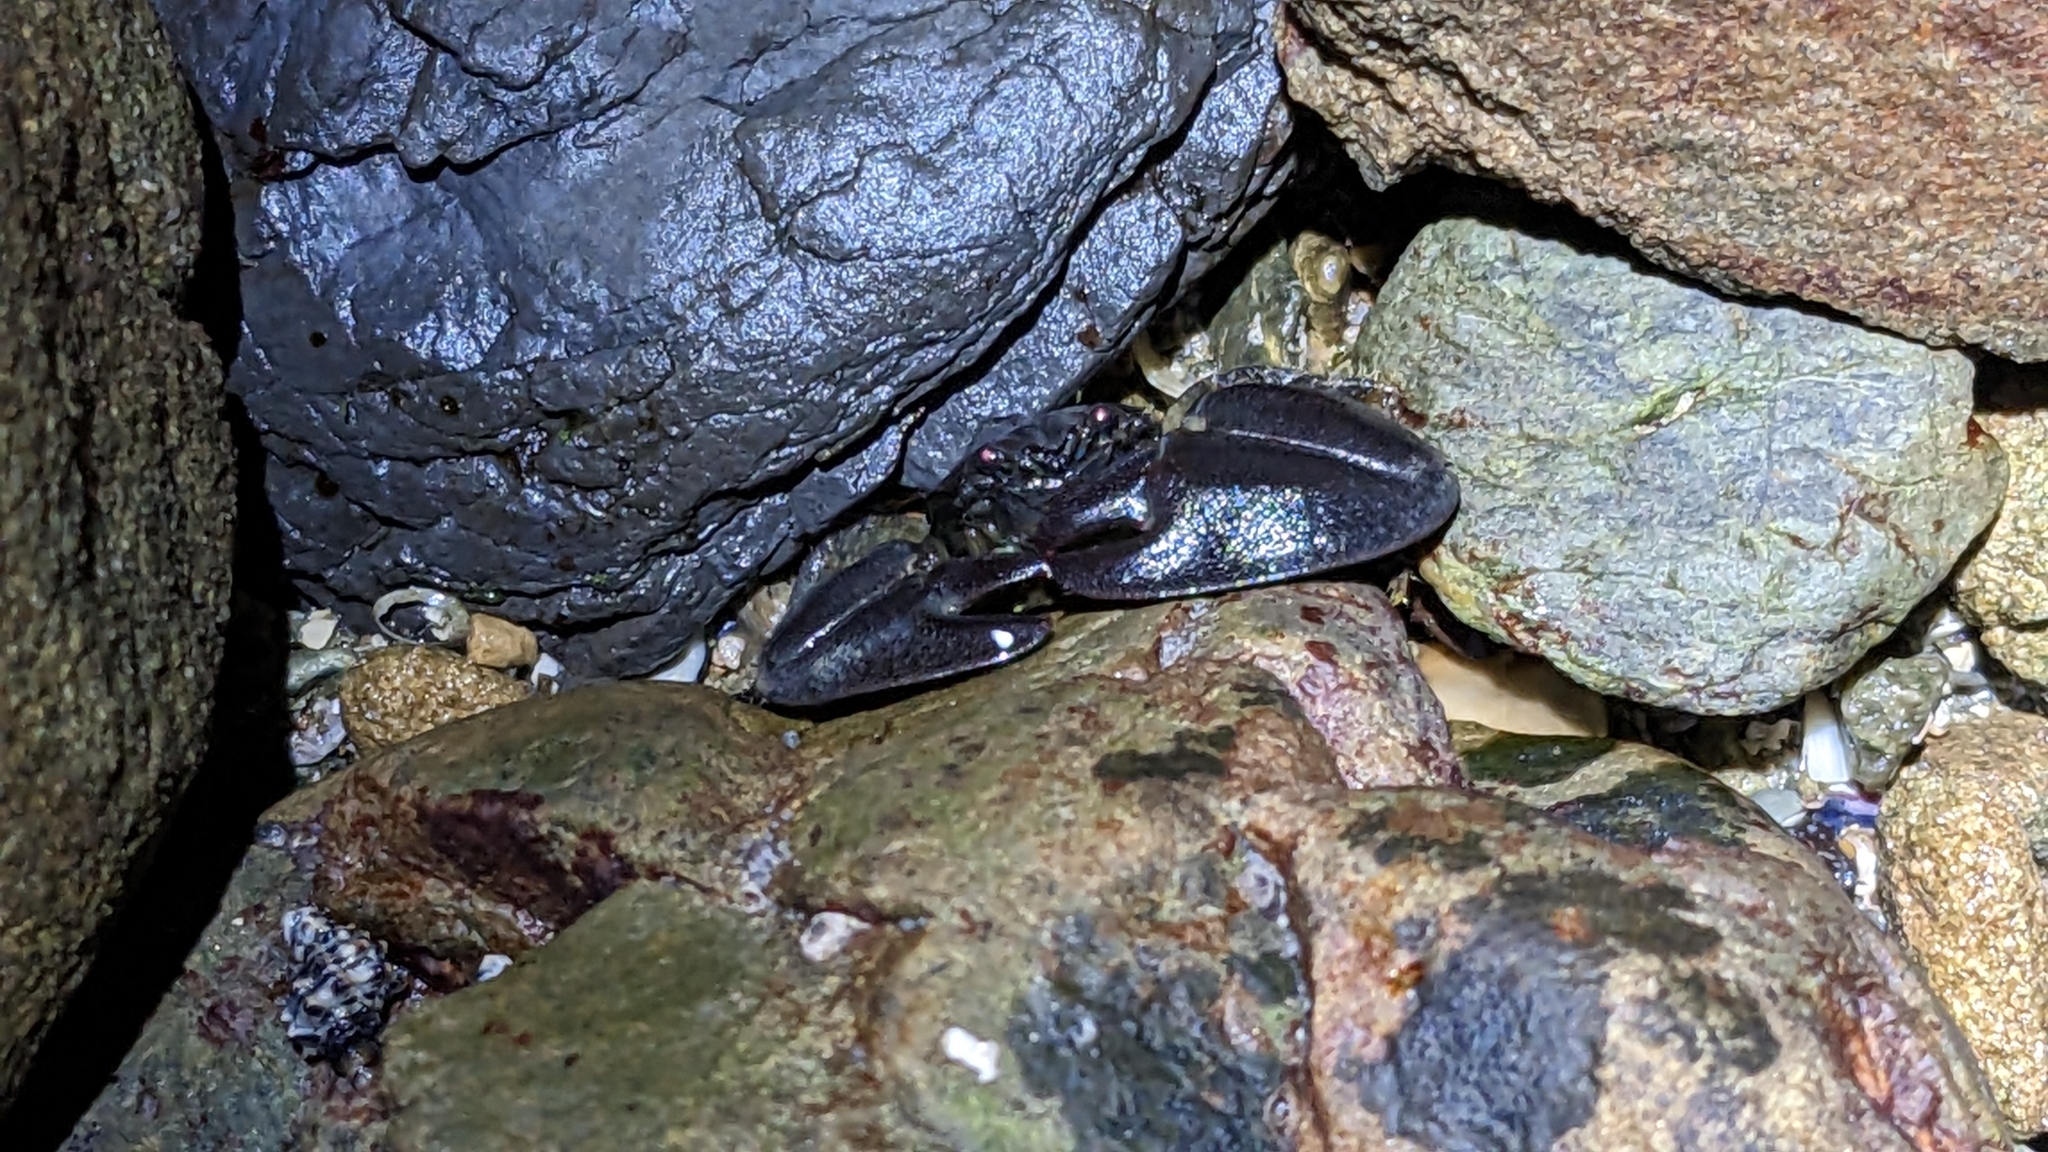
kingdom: Animalia
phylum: Arthropoda
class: Malacostraca
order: Decapoda
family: Porcellanidae
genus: Petrolisthes
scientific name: Petrolisthes elongatus
